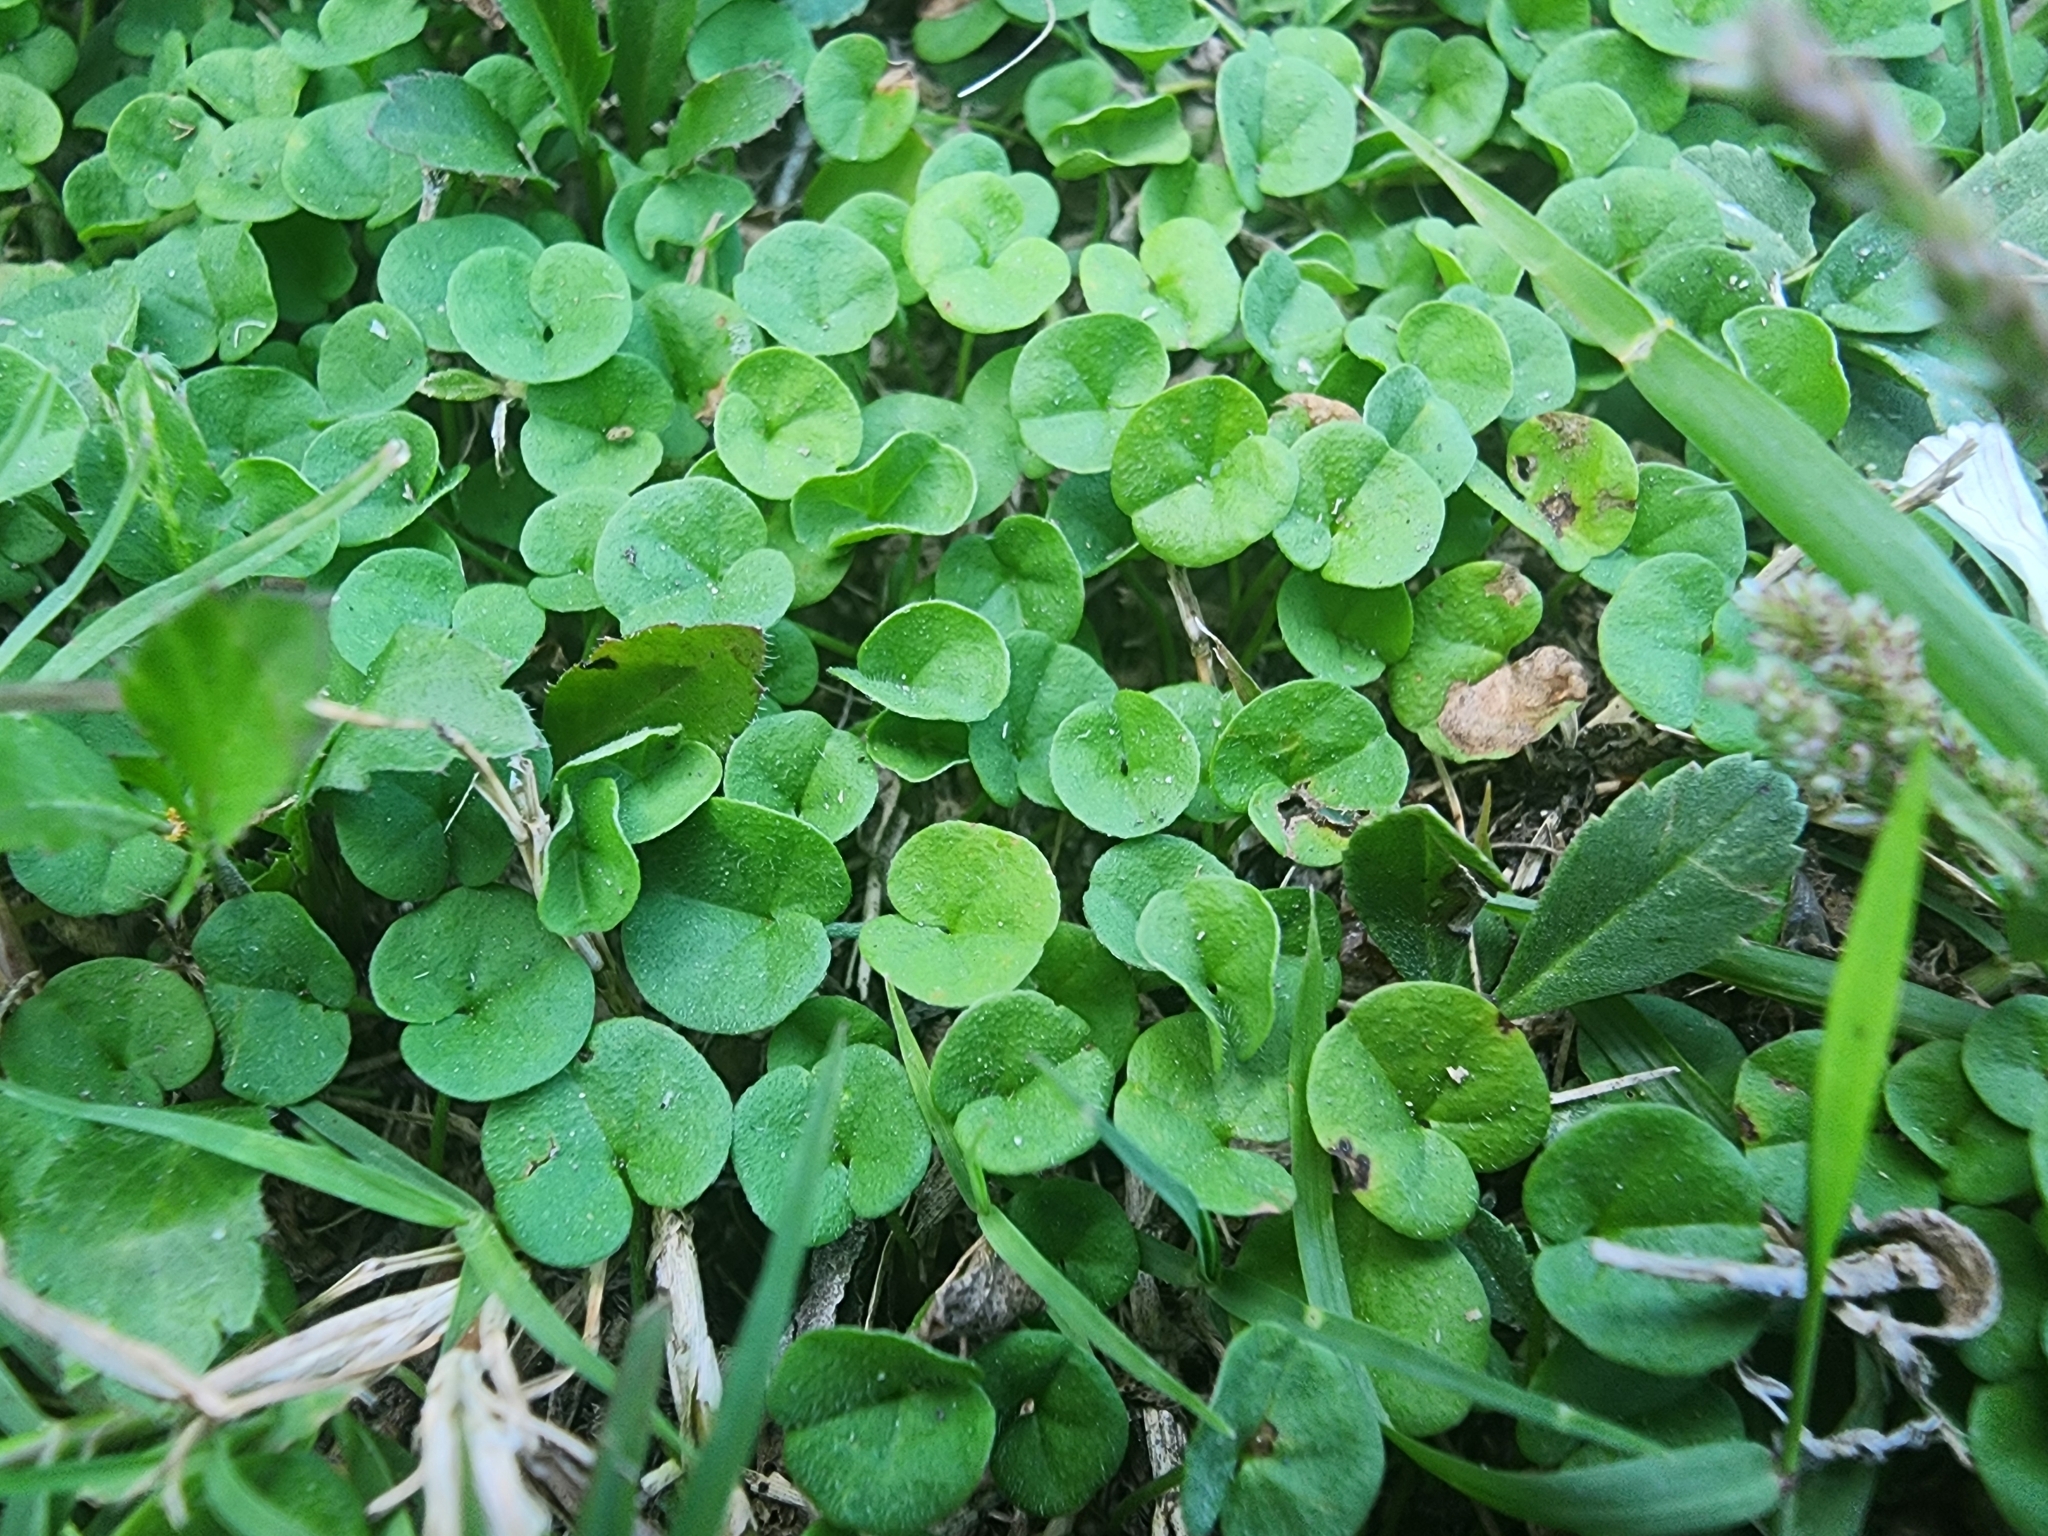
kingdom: Plantae
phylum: Tracheophyta
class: Magnoliopsida
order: Solanales
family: Convolvulaceae
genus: Dichondra
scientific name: Dichondra carolinensis
